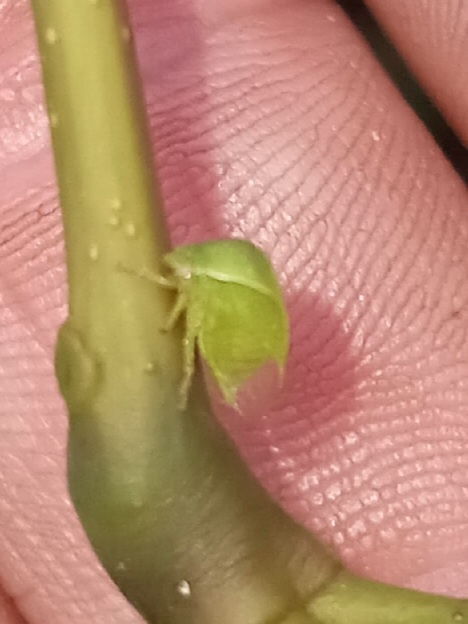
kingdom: Animalia
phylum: Arthropoda
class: Insecta
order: Hemiptera
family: Membracidae
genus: Spissistilus
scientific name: Spissistilus festina
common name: Membracid bug
